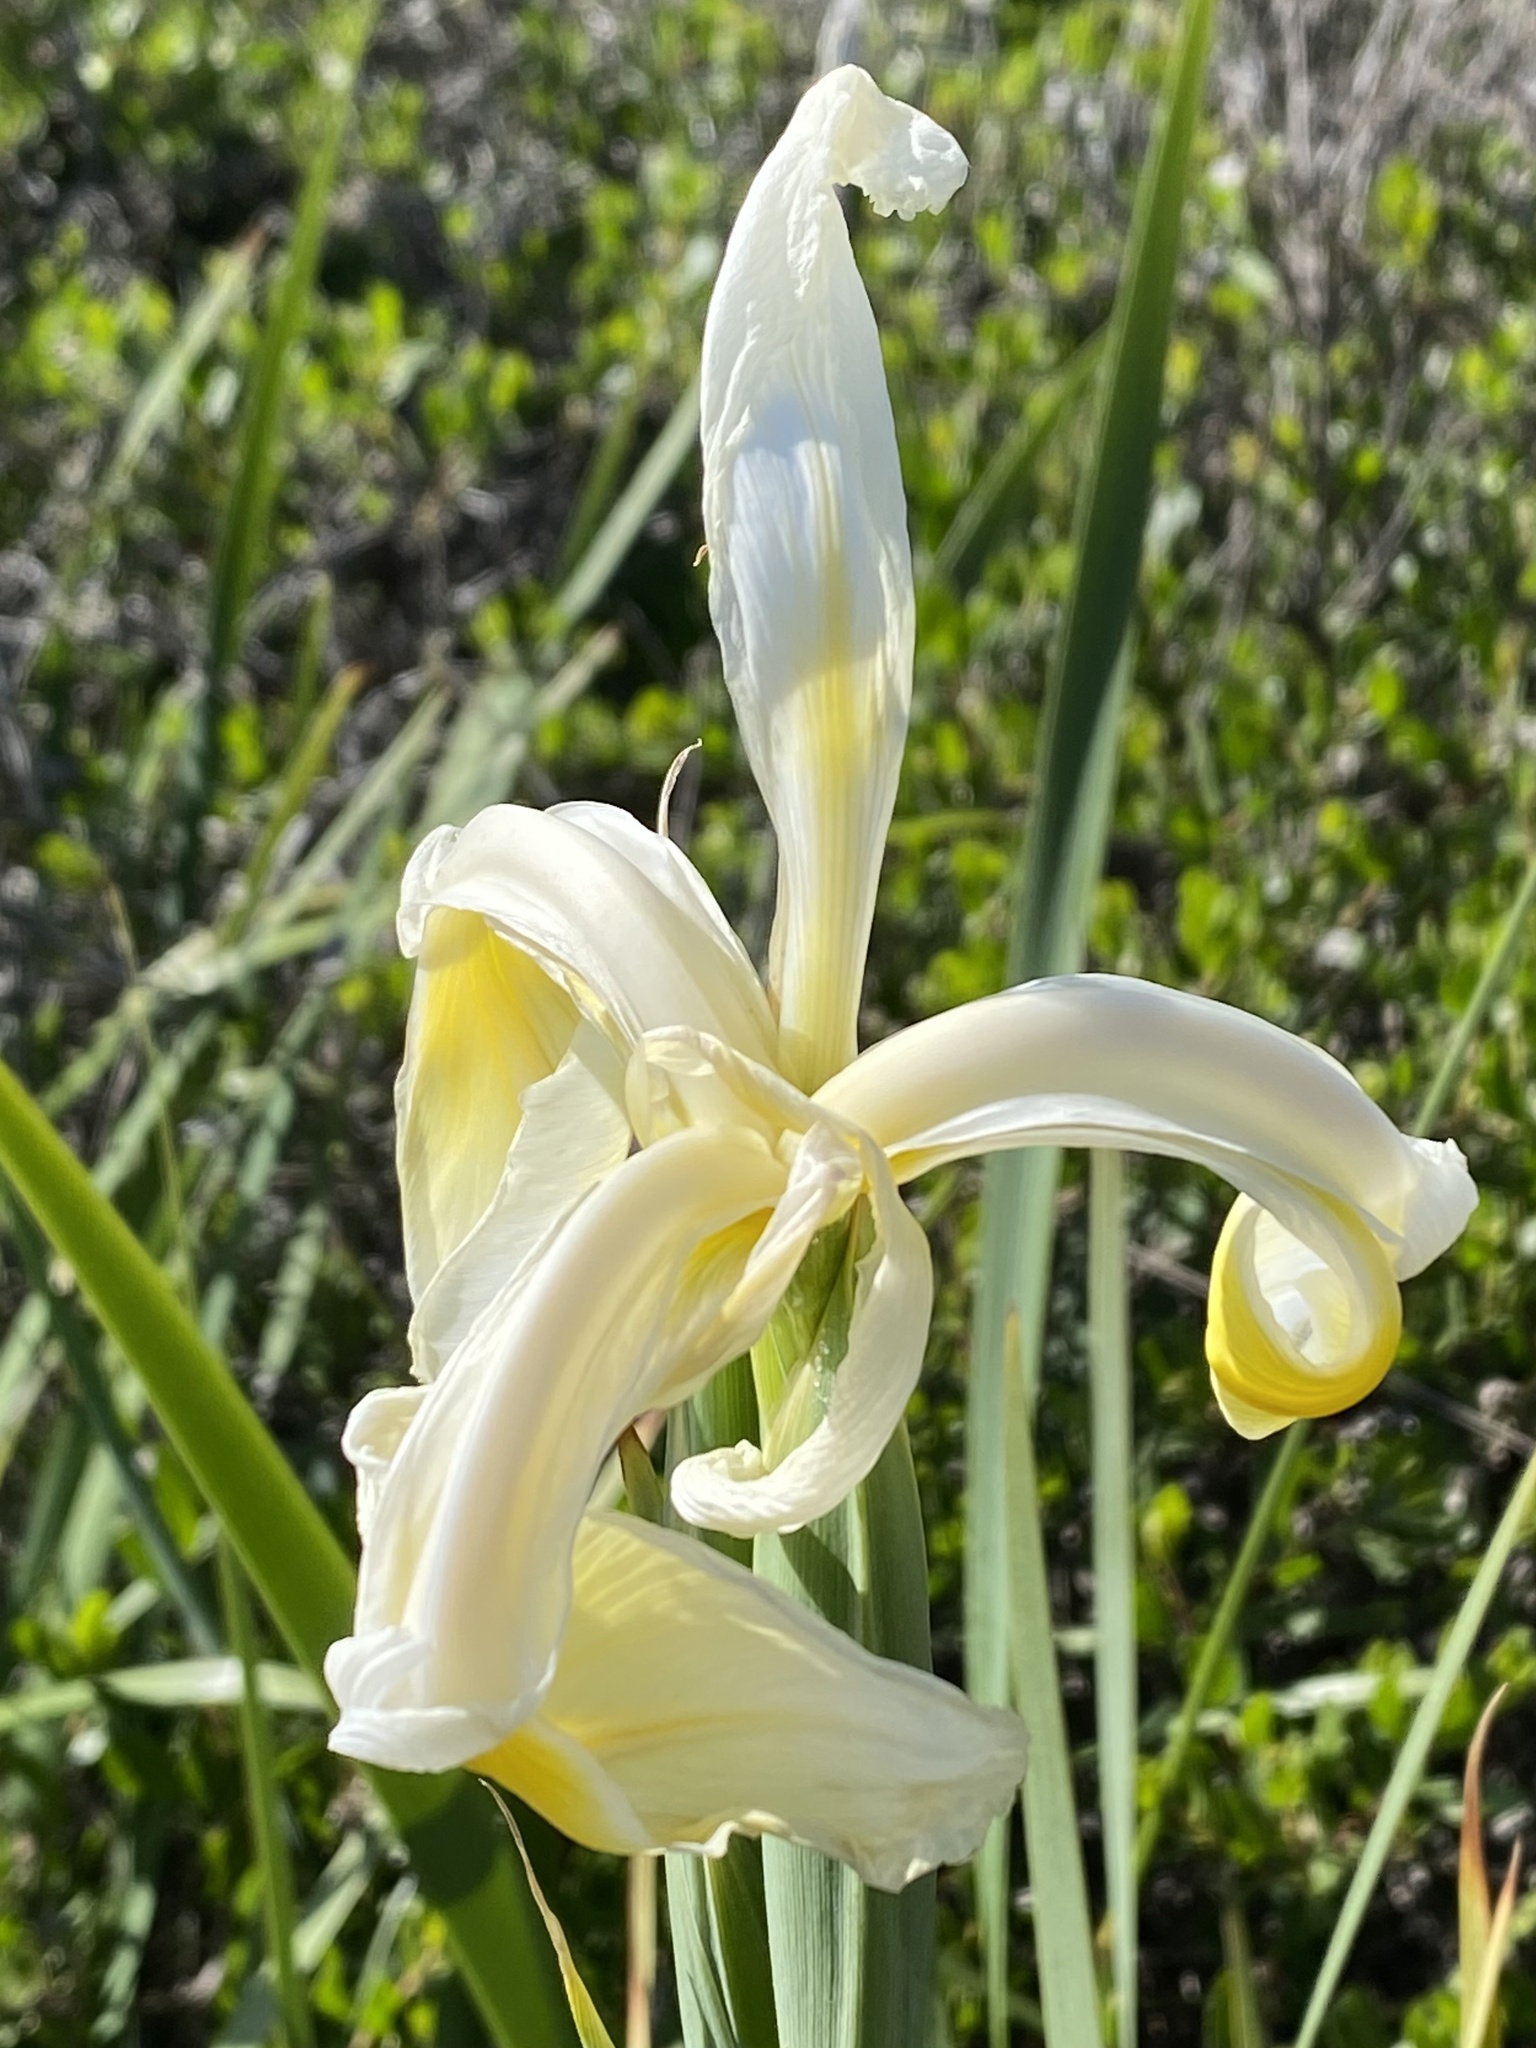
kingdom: Plantae
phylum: Tracheophyta
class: Liliopsida
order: Asparagales
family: Iridaceae
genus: Iris
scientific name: Iris orientalis
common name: Turkish iris
